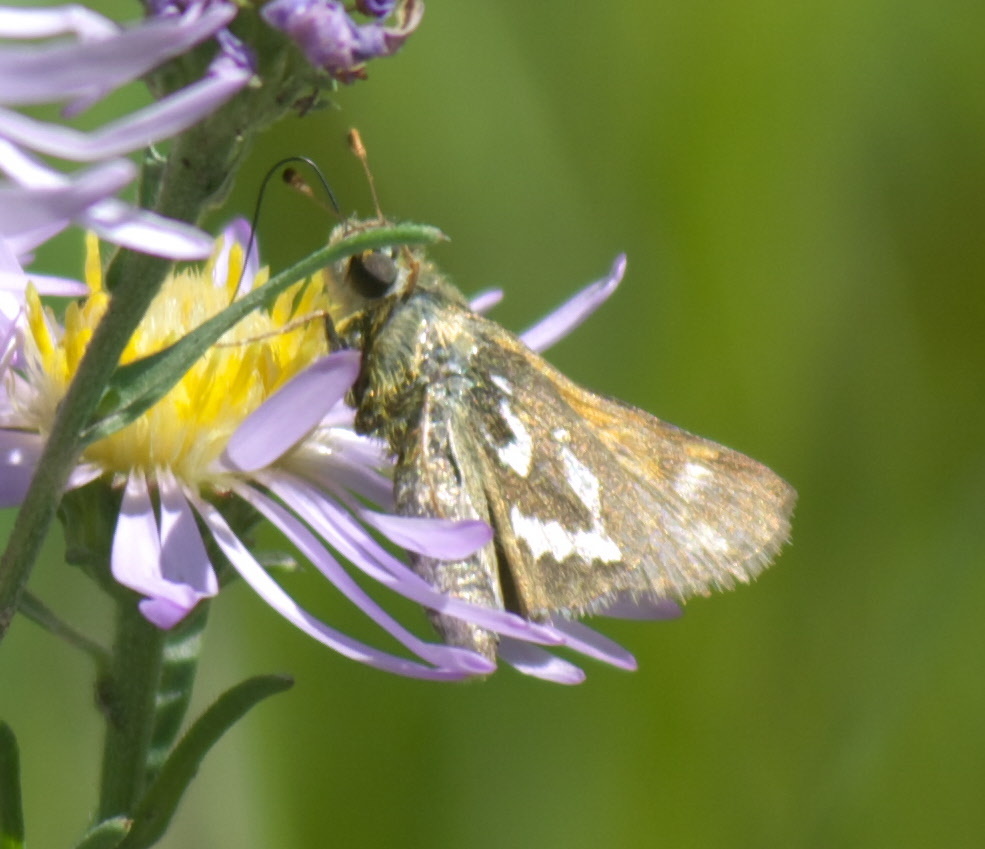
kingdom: Animalia
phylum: Arthropoda
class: Insecta
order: Lepidoptera
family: Hesperiidae
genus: Hesperia
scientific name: Hesperia comma
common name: Common branded skipper
